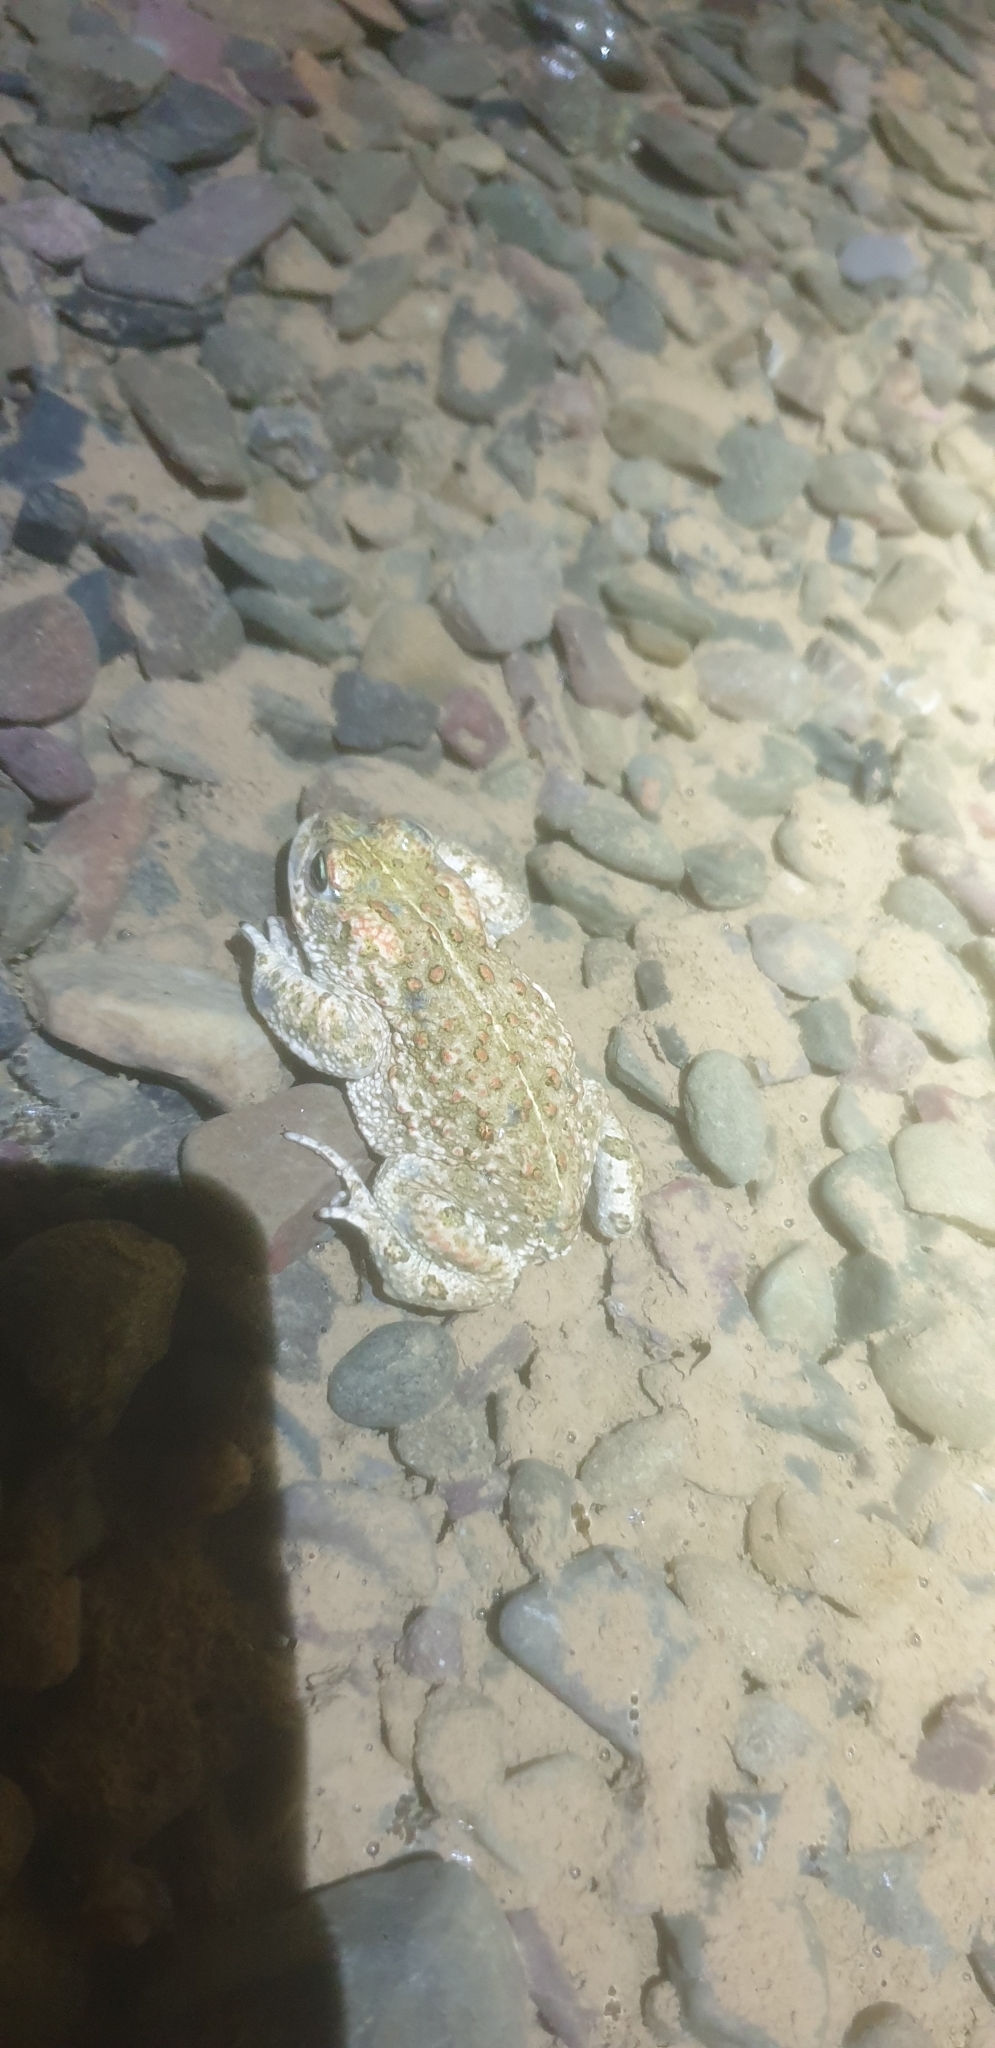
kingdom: Animalia
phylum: Chordata
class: Amphibia
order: Anura
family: Bufonidae
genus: Epidalea
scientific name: Epidalea calamita
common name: Natterjack toad
